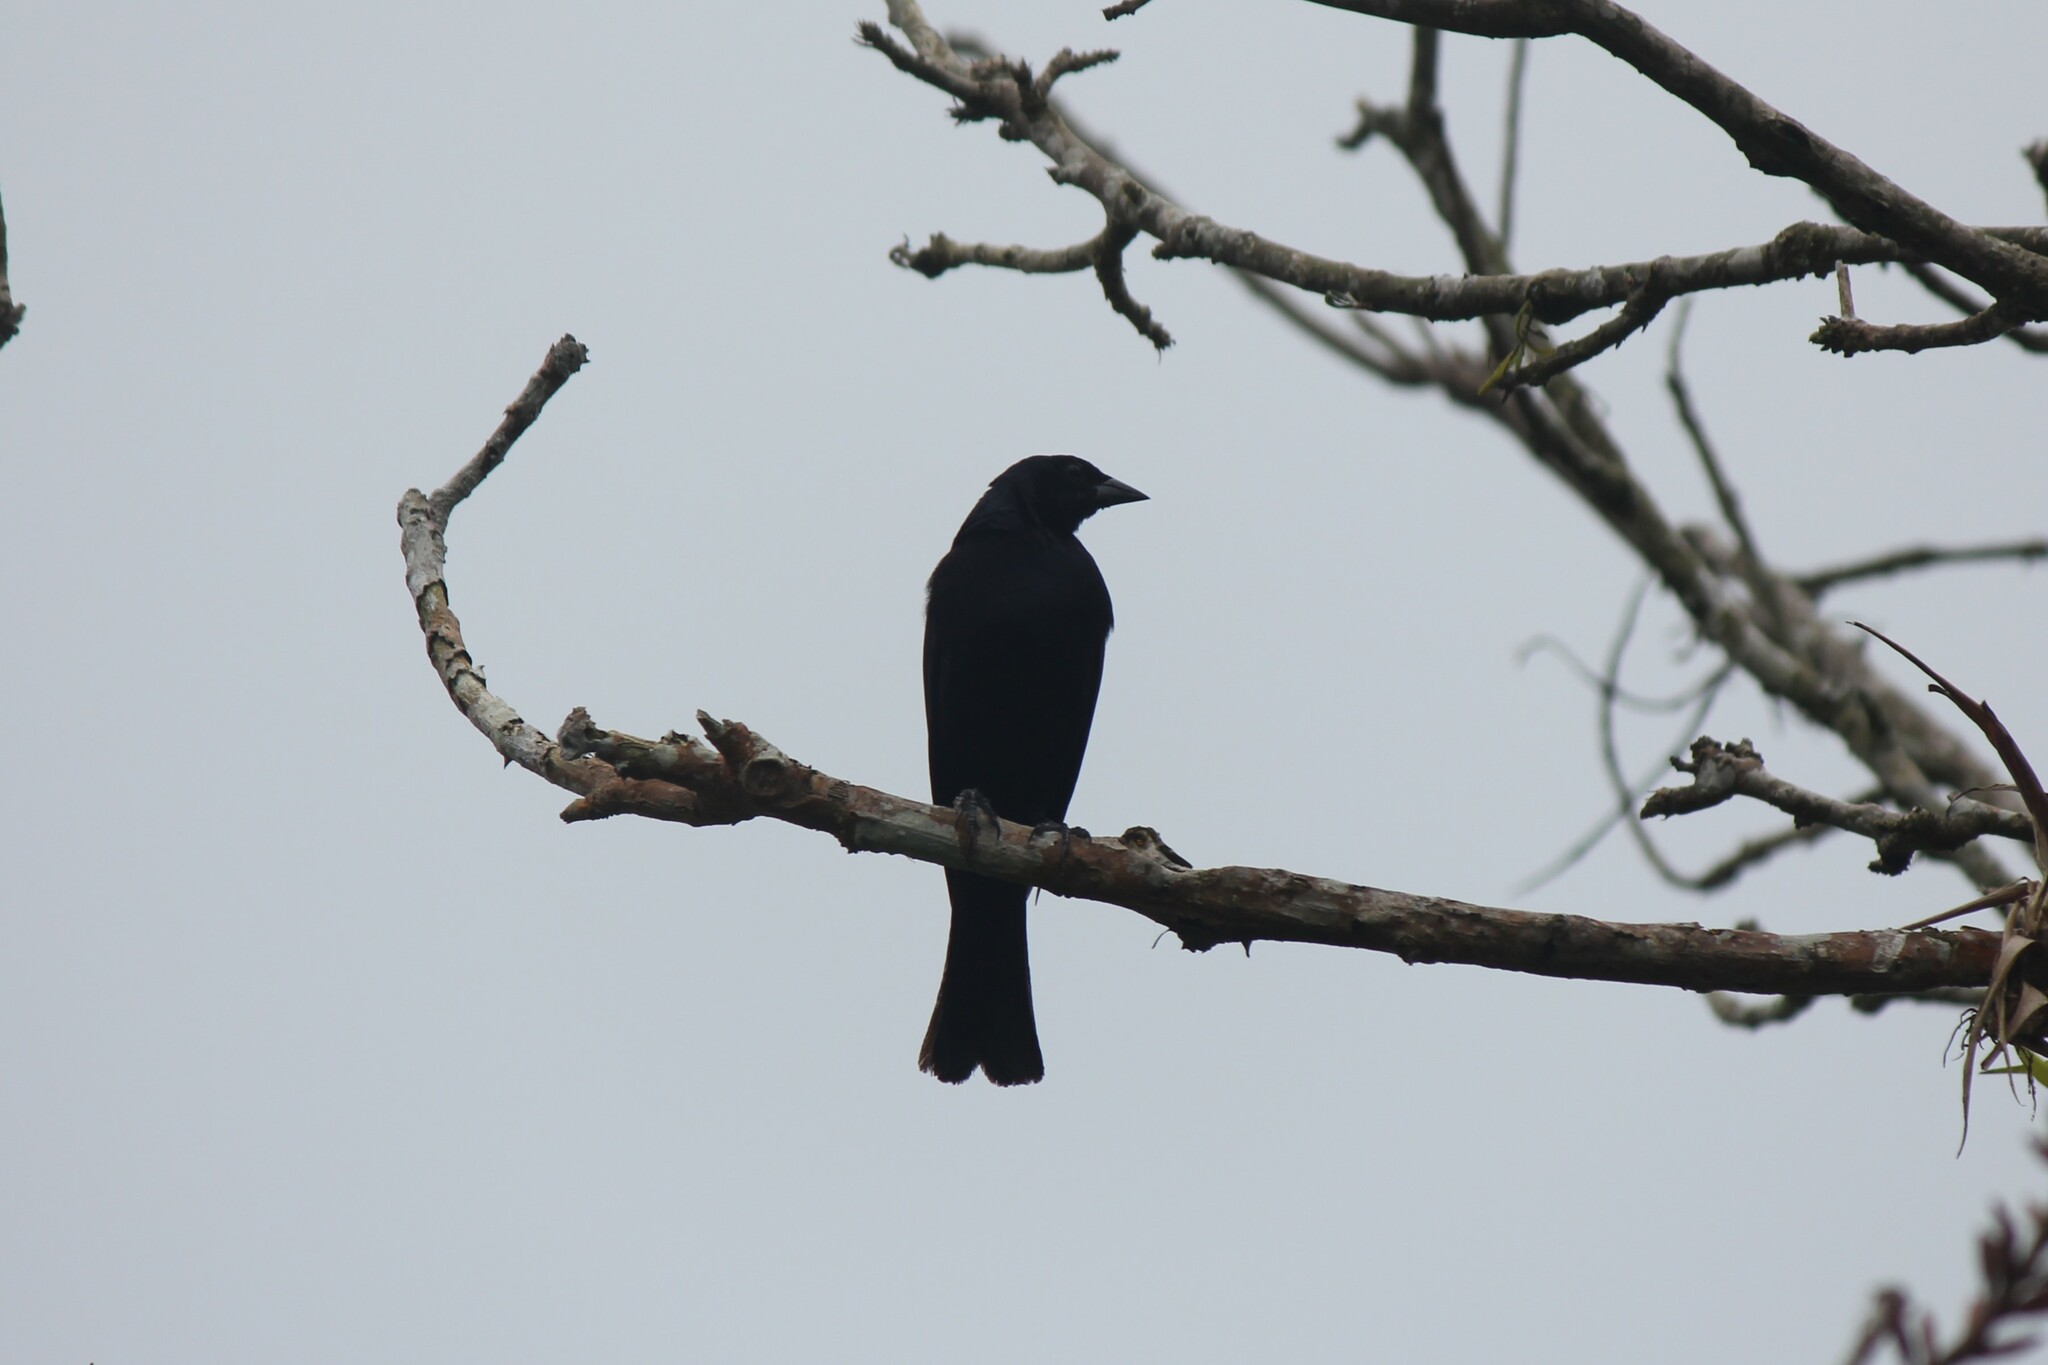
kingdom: Animalia
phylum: Chordata
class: Aves
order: Passeriformes
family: Icteridae
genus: Molothrus
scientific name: Molothrus bonariensis
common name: Shiny cowbird
